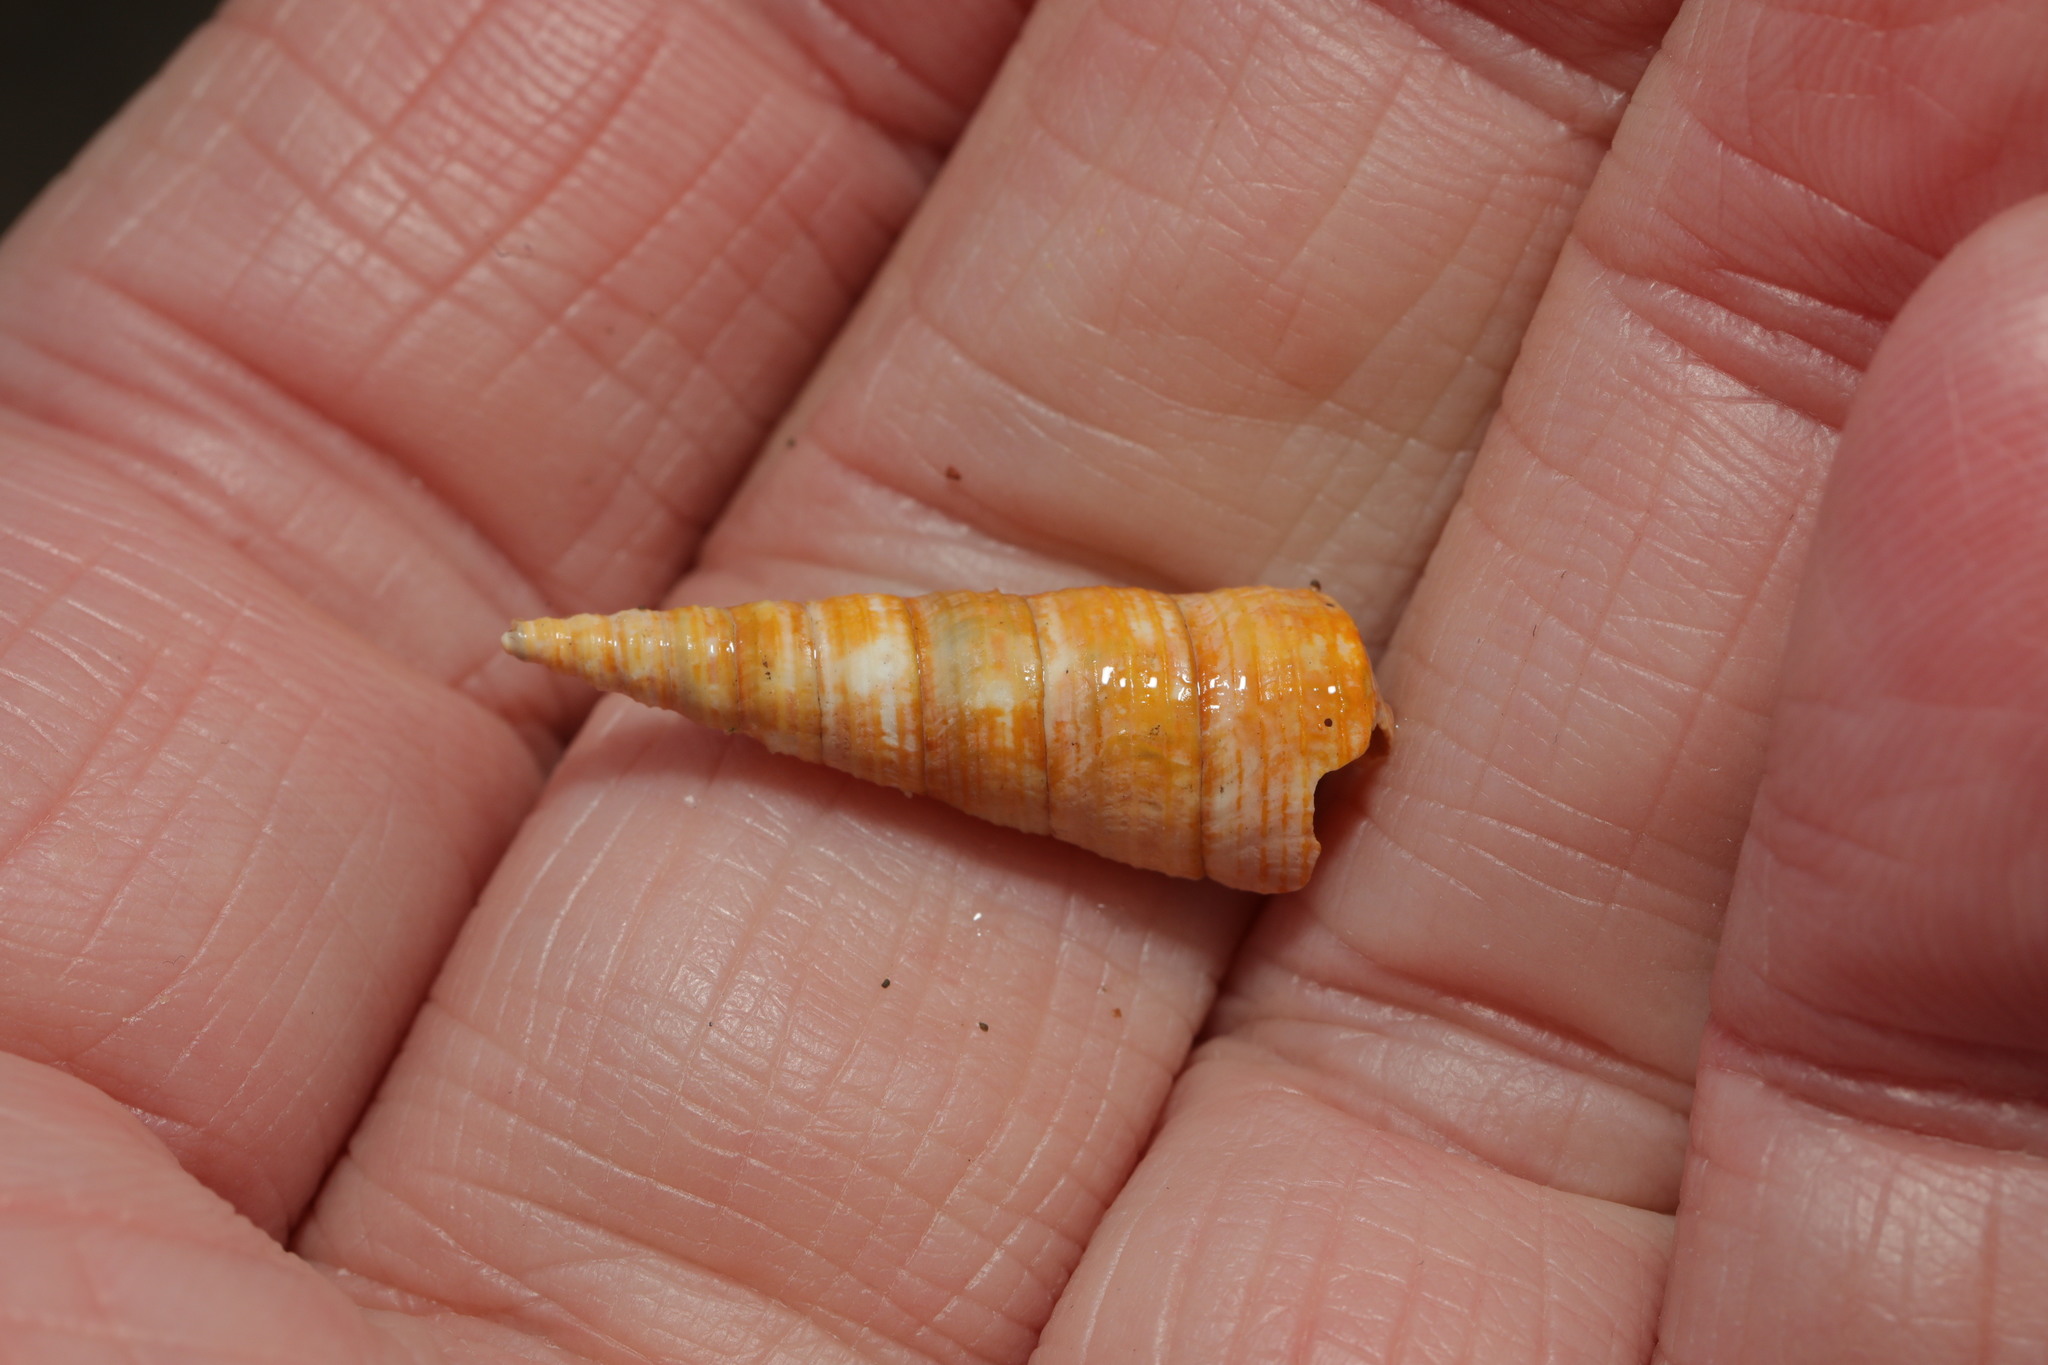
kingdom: Animalia
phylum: Mollusca
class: Gastropoda
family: Turritellidae
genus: Turritellinella
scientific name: Turritellinella tricarinata
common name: Auger shell
